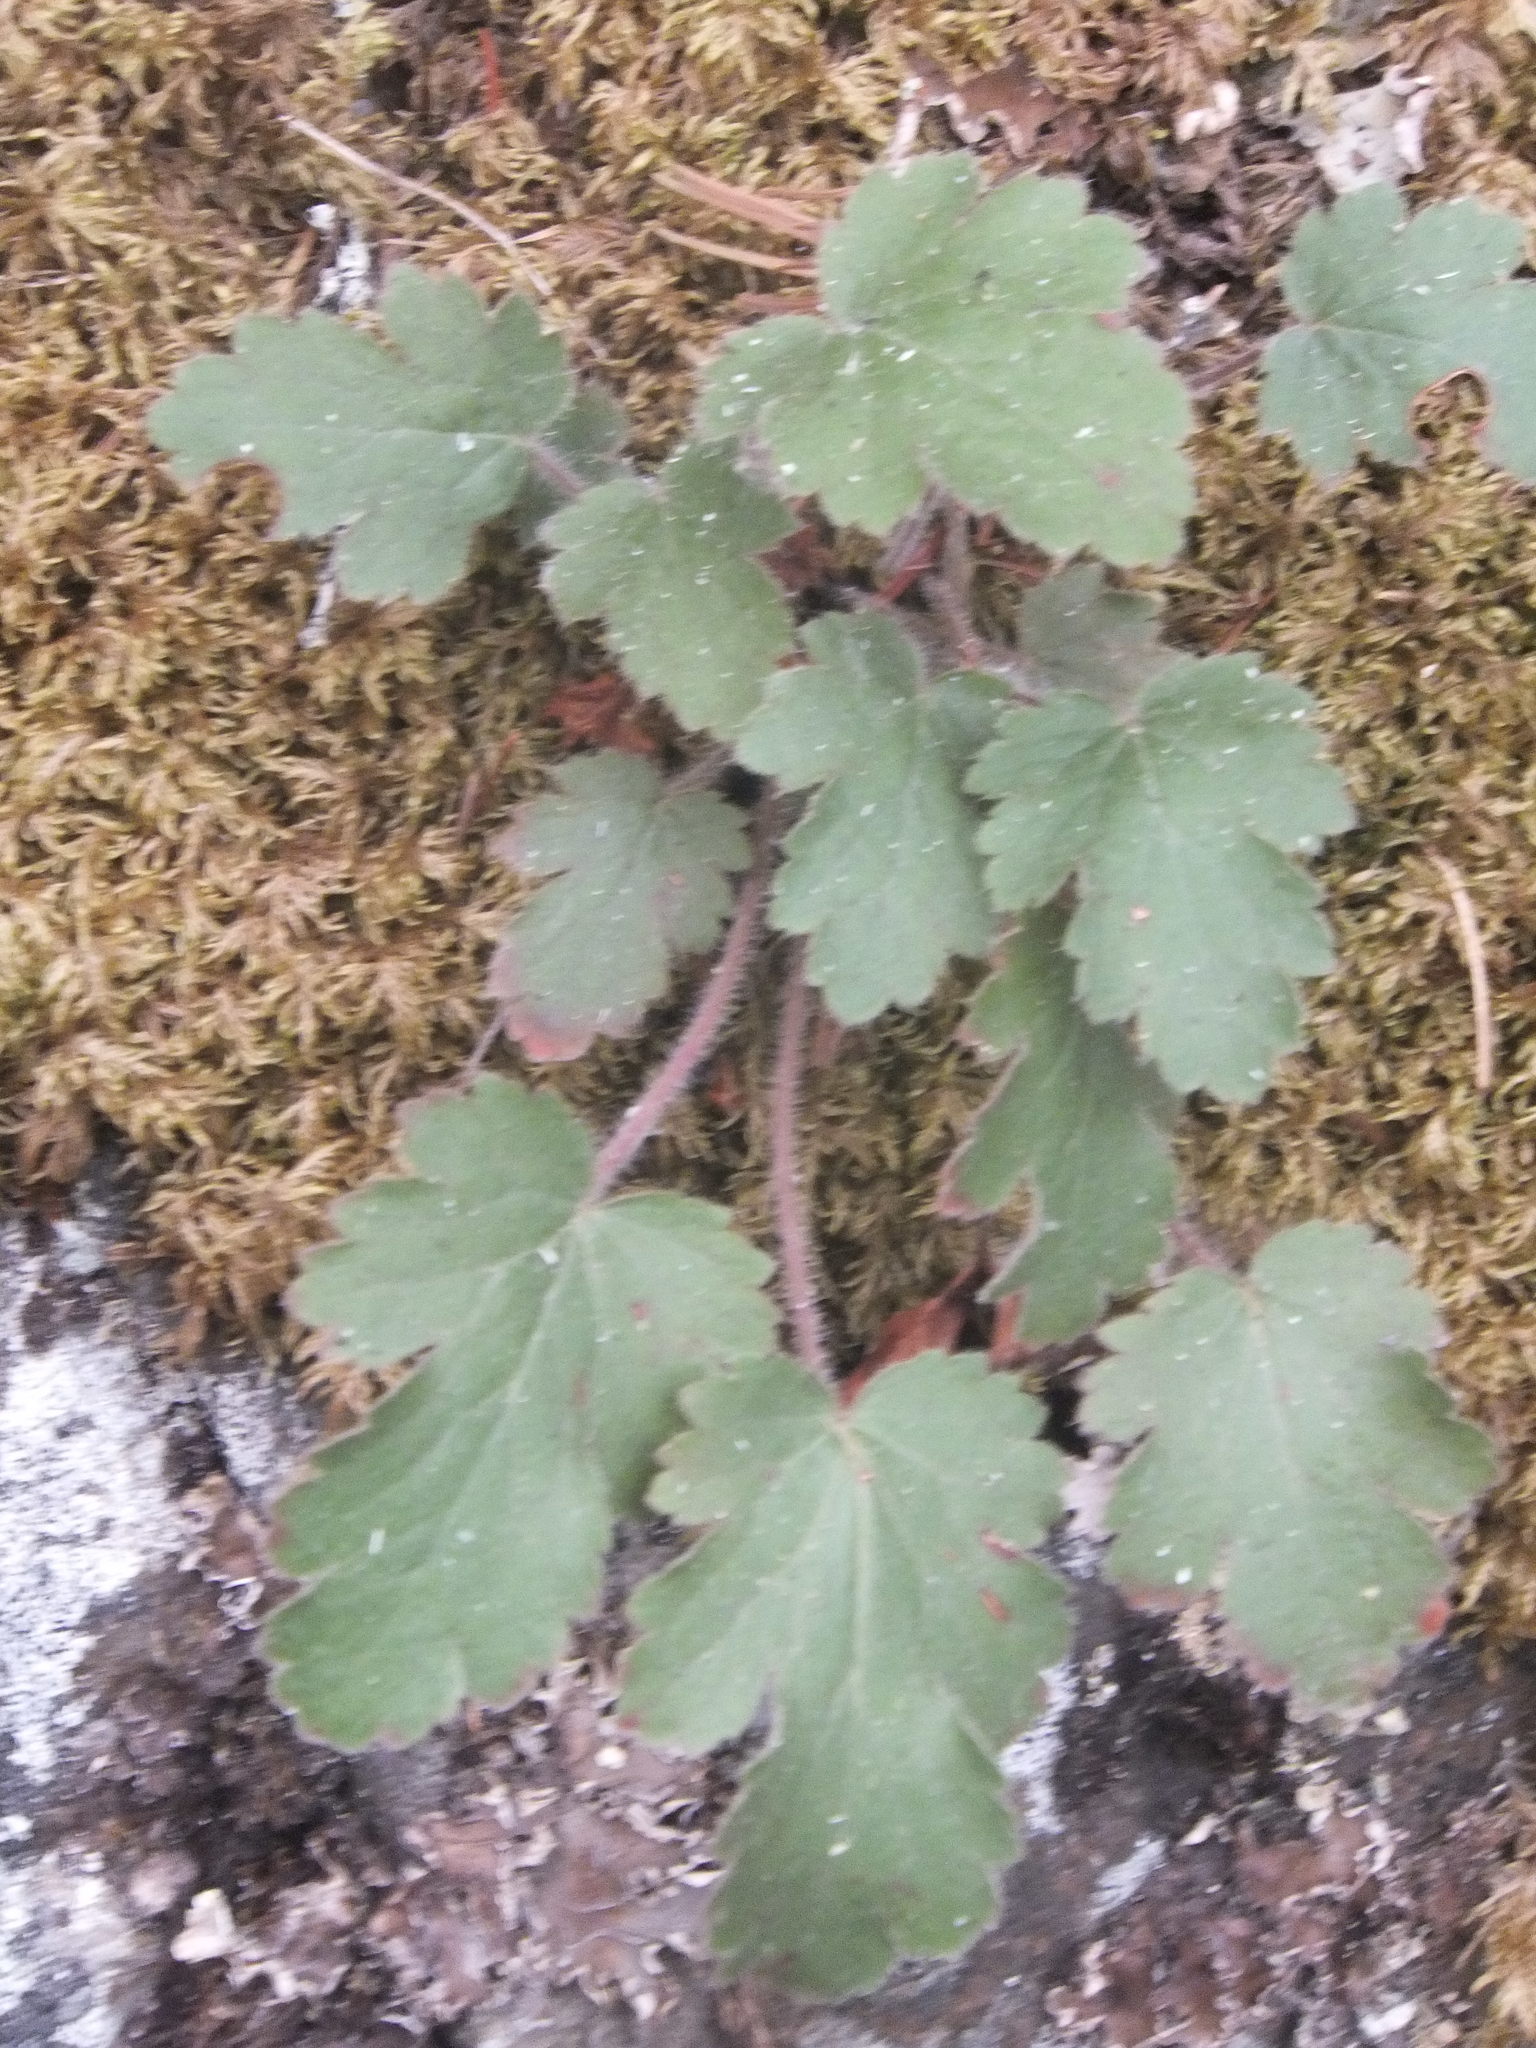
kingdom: Plantae
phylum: Tracheophyta
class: Magnoliopsida
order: Saxifragales
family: Saxifragaceae
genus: Heuchera
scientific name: Heuchera cylindrica
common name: Mat alumroot
